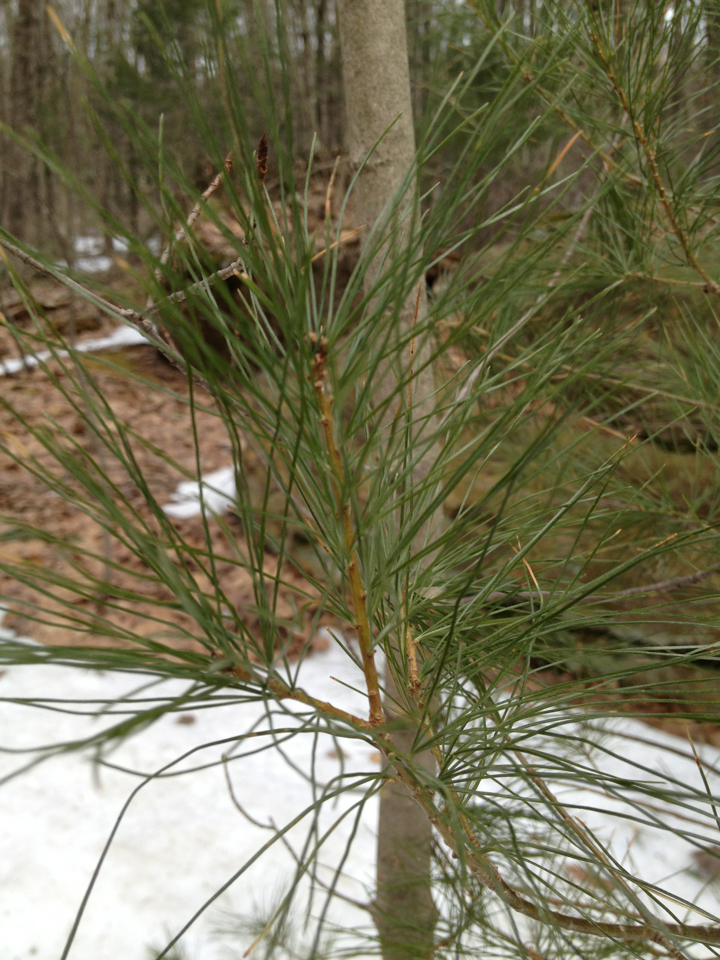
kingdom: Plantae
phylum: Tracheophyta
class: Pinopsida
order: Pinales
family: Pinaceae
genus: Pinus
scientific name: Pinus strobus
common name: Weymouth pine
